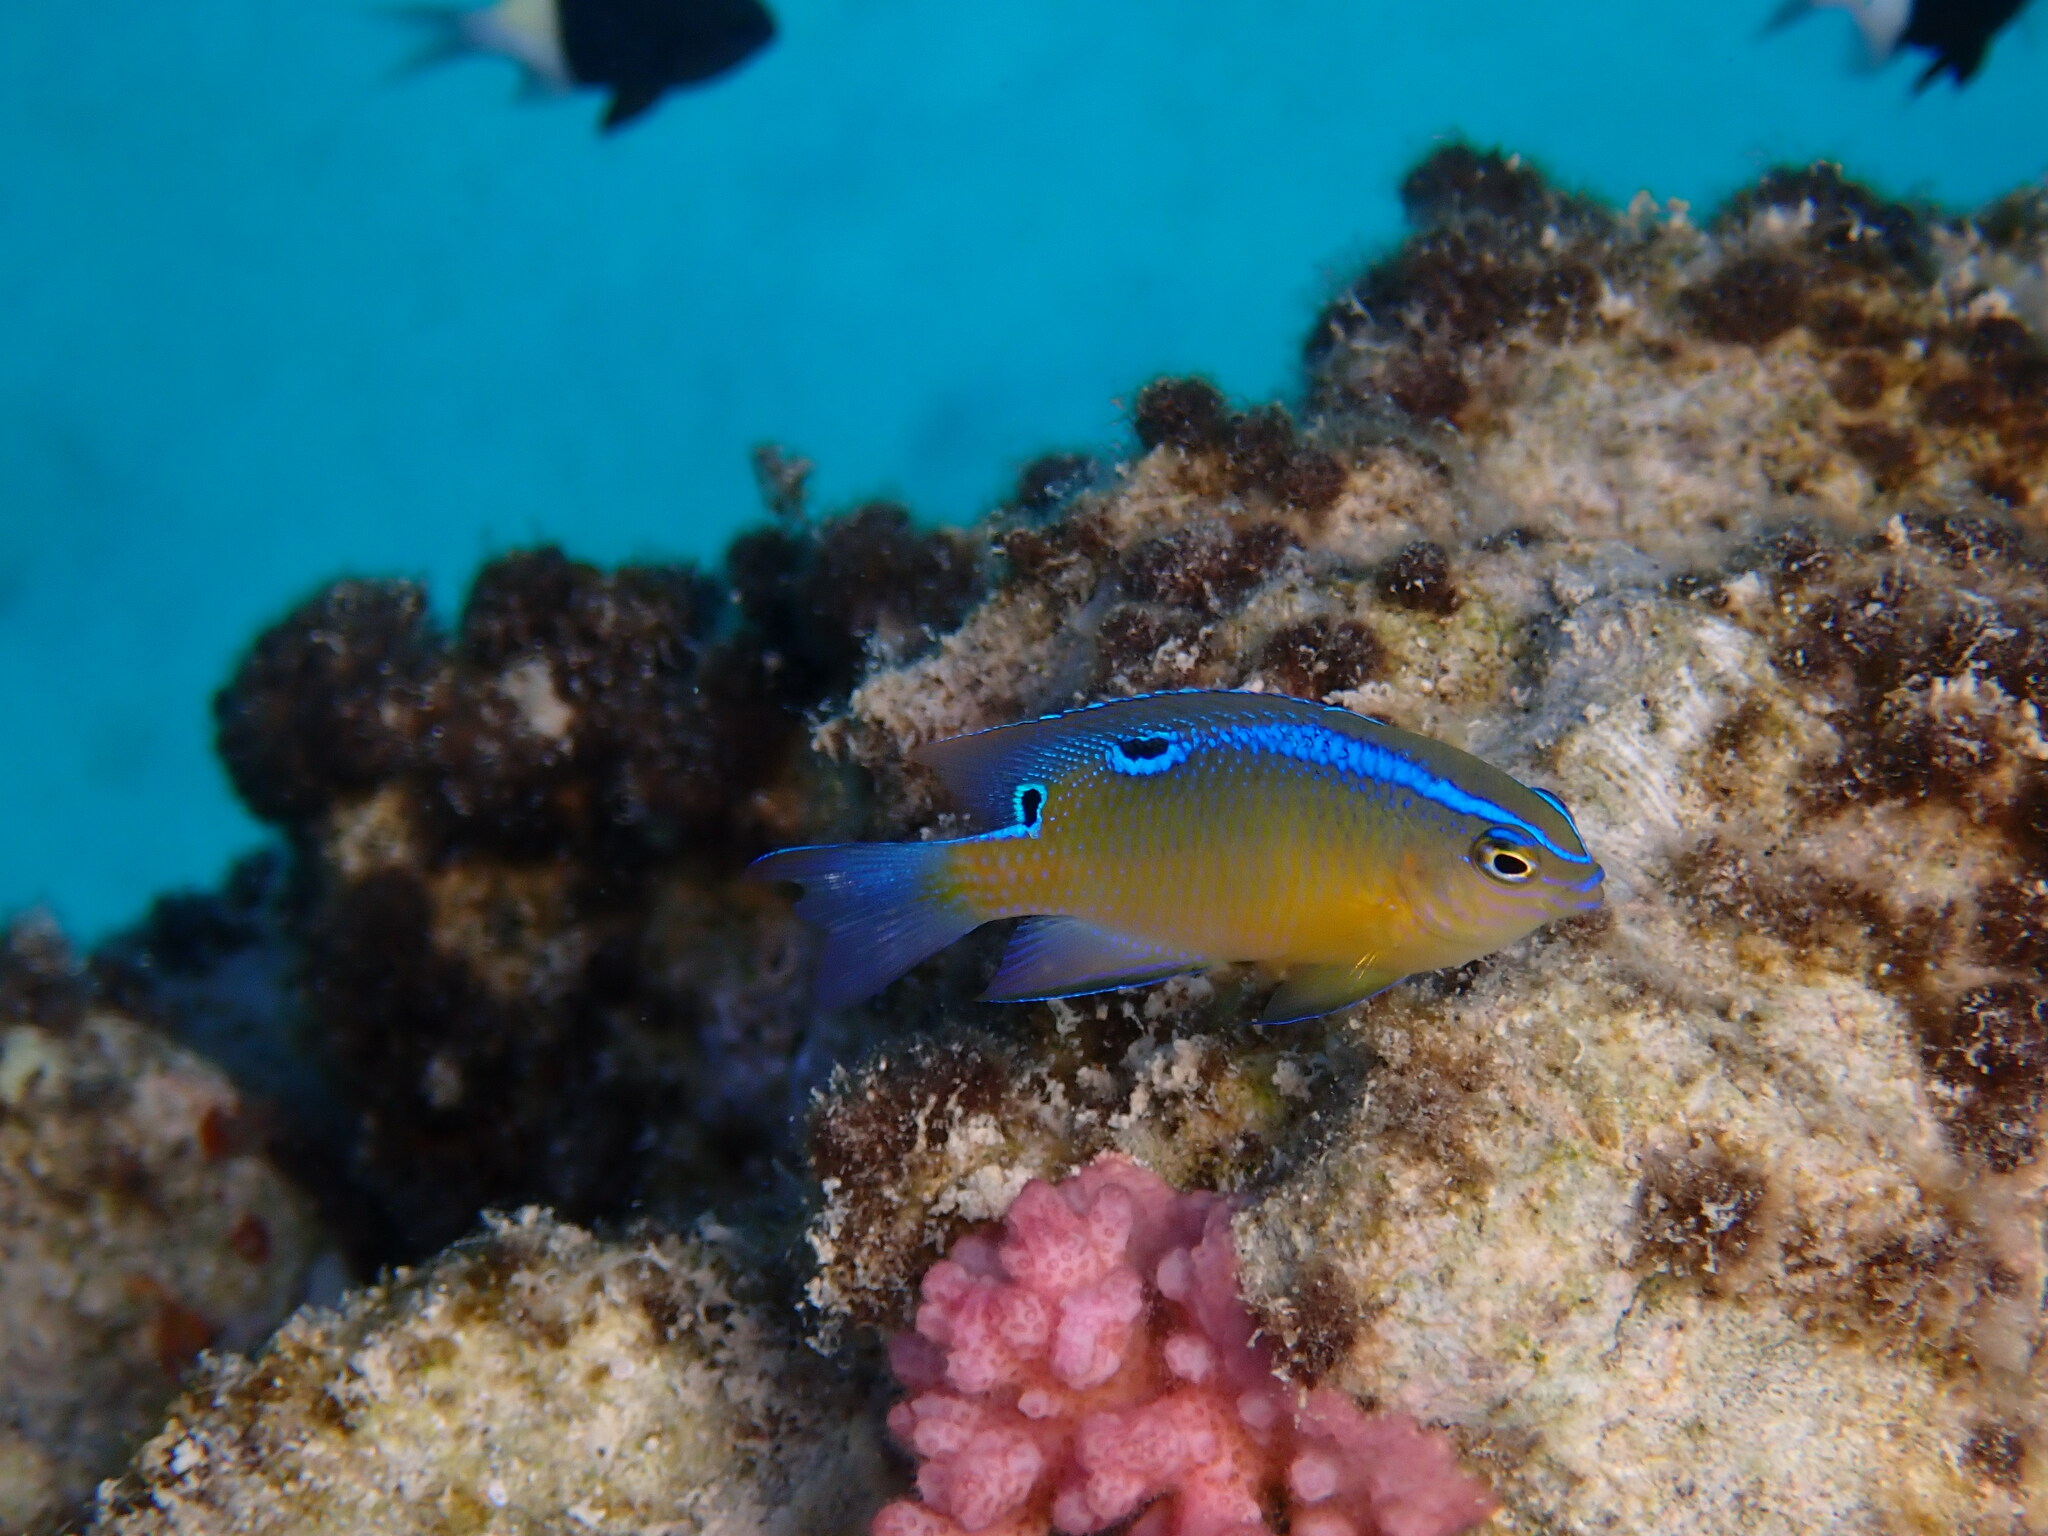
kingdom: Animalia
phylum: Chordata
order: Perciformes
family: Pomacentridae
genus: Chrysiptera
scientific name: Chrysiptera unimaculata
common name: Onespot demoiselle
